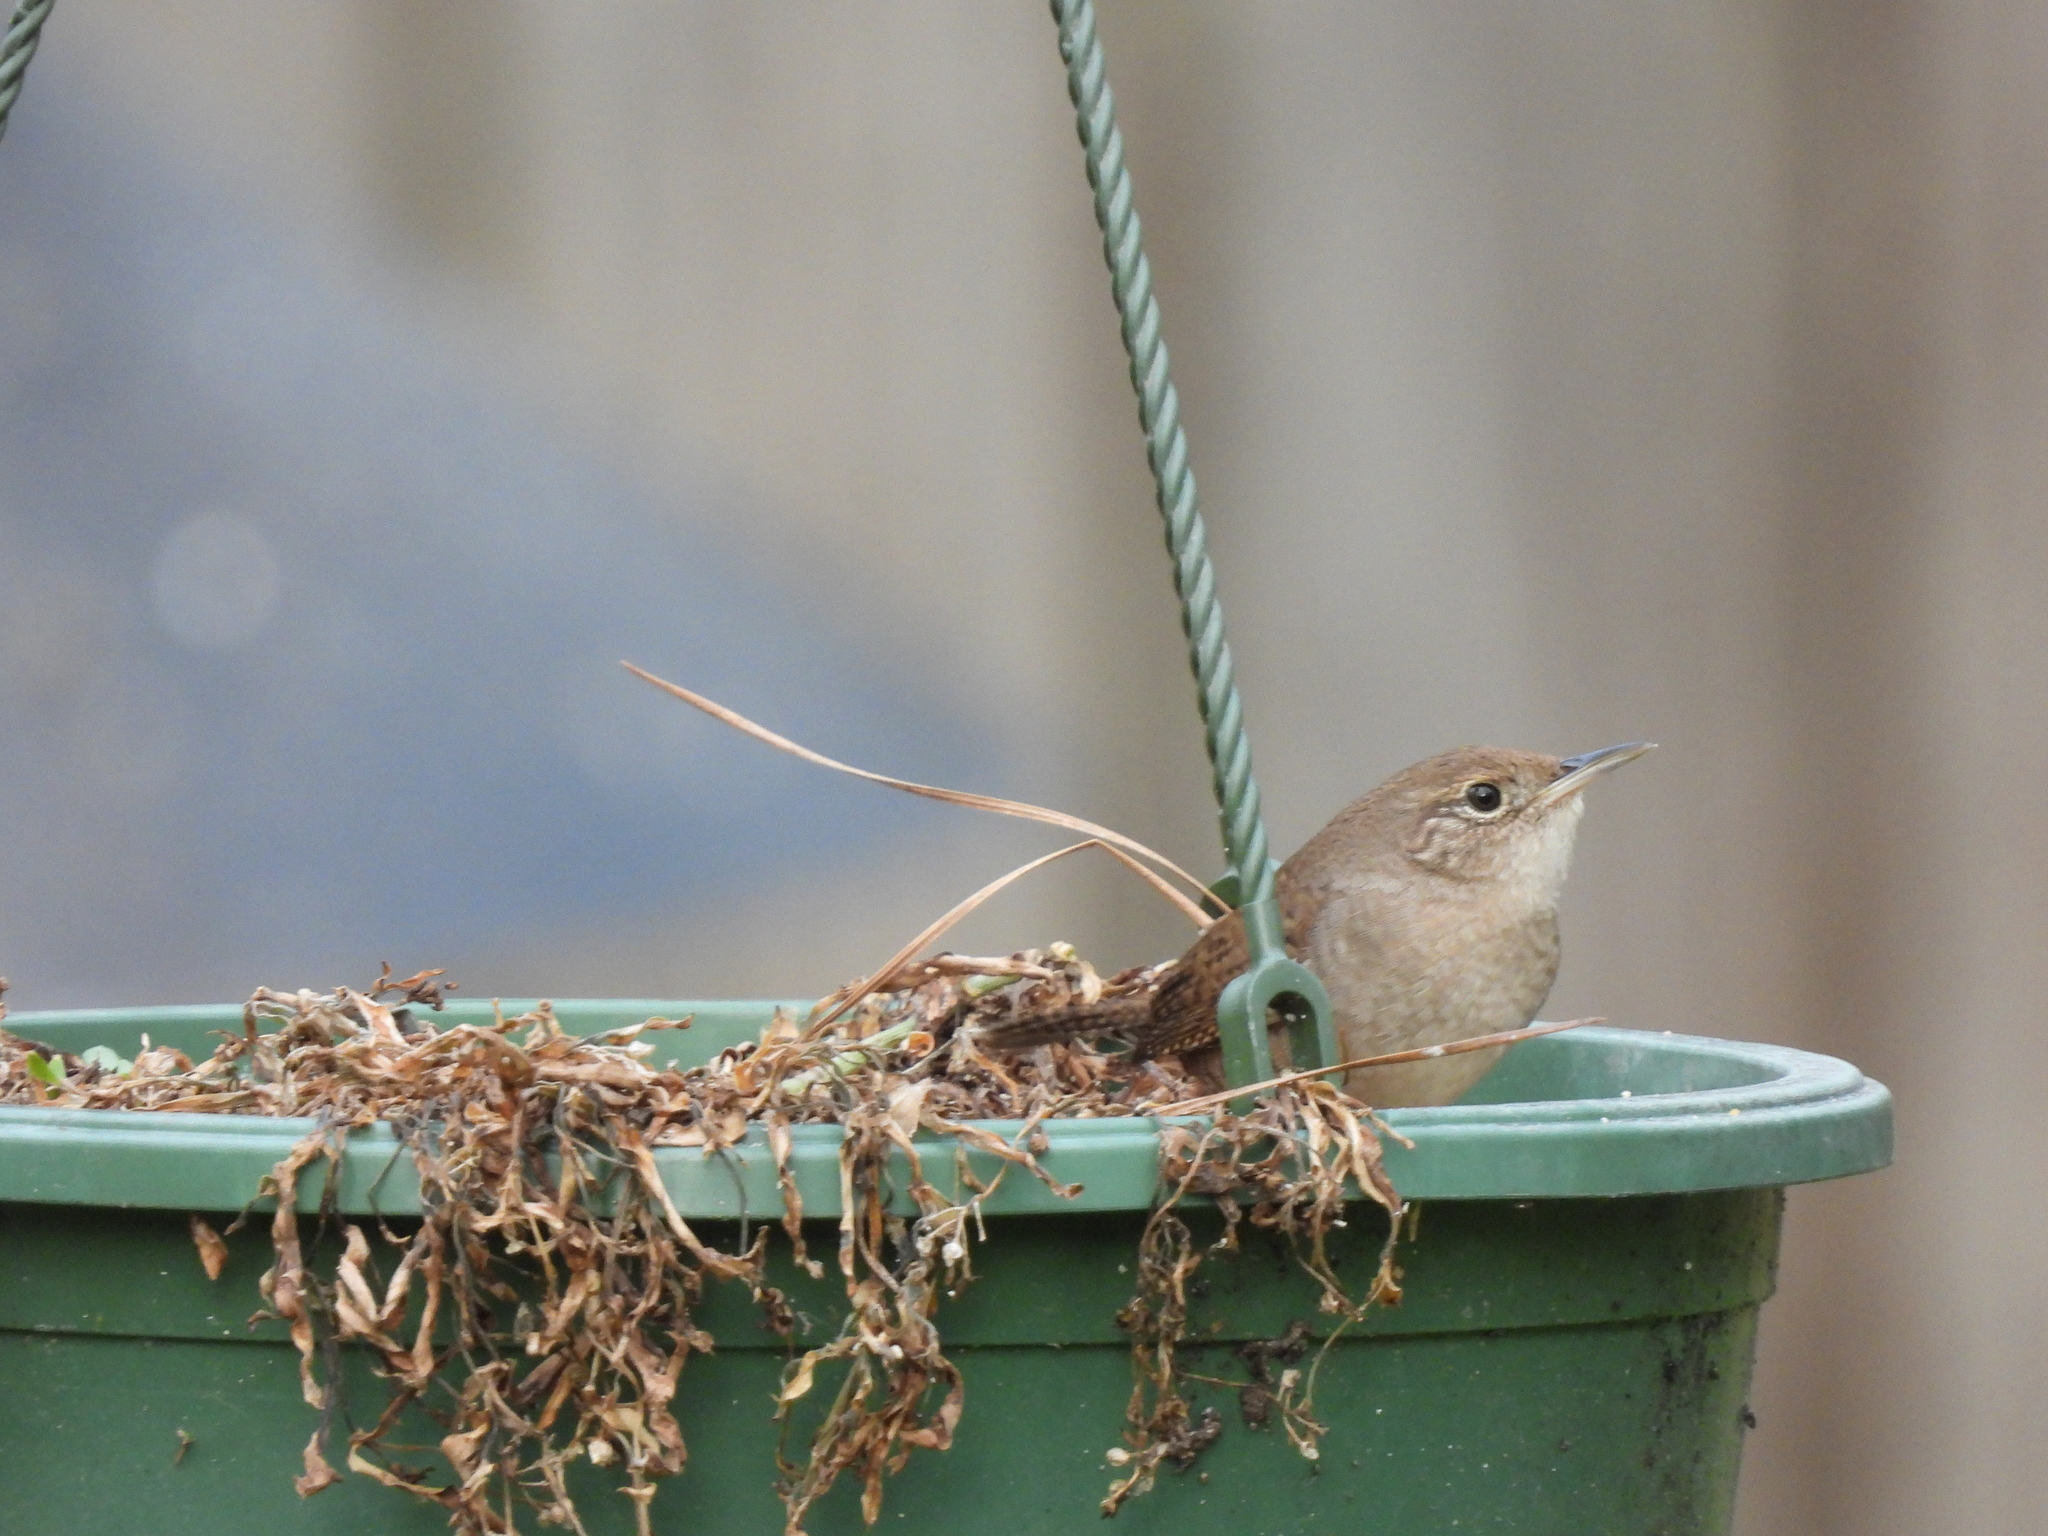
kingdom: Animalia
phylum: Chordata
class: Aves
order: Passeriformes
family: Troglodytidae
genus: Troglodytes
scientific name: Troglodytes aedon
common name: House wren
